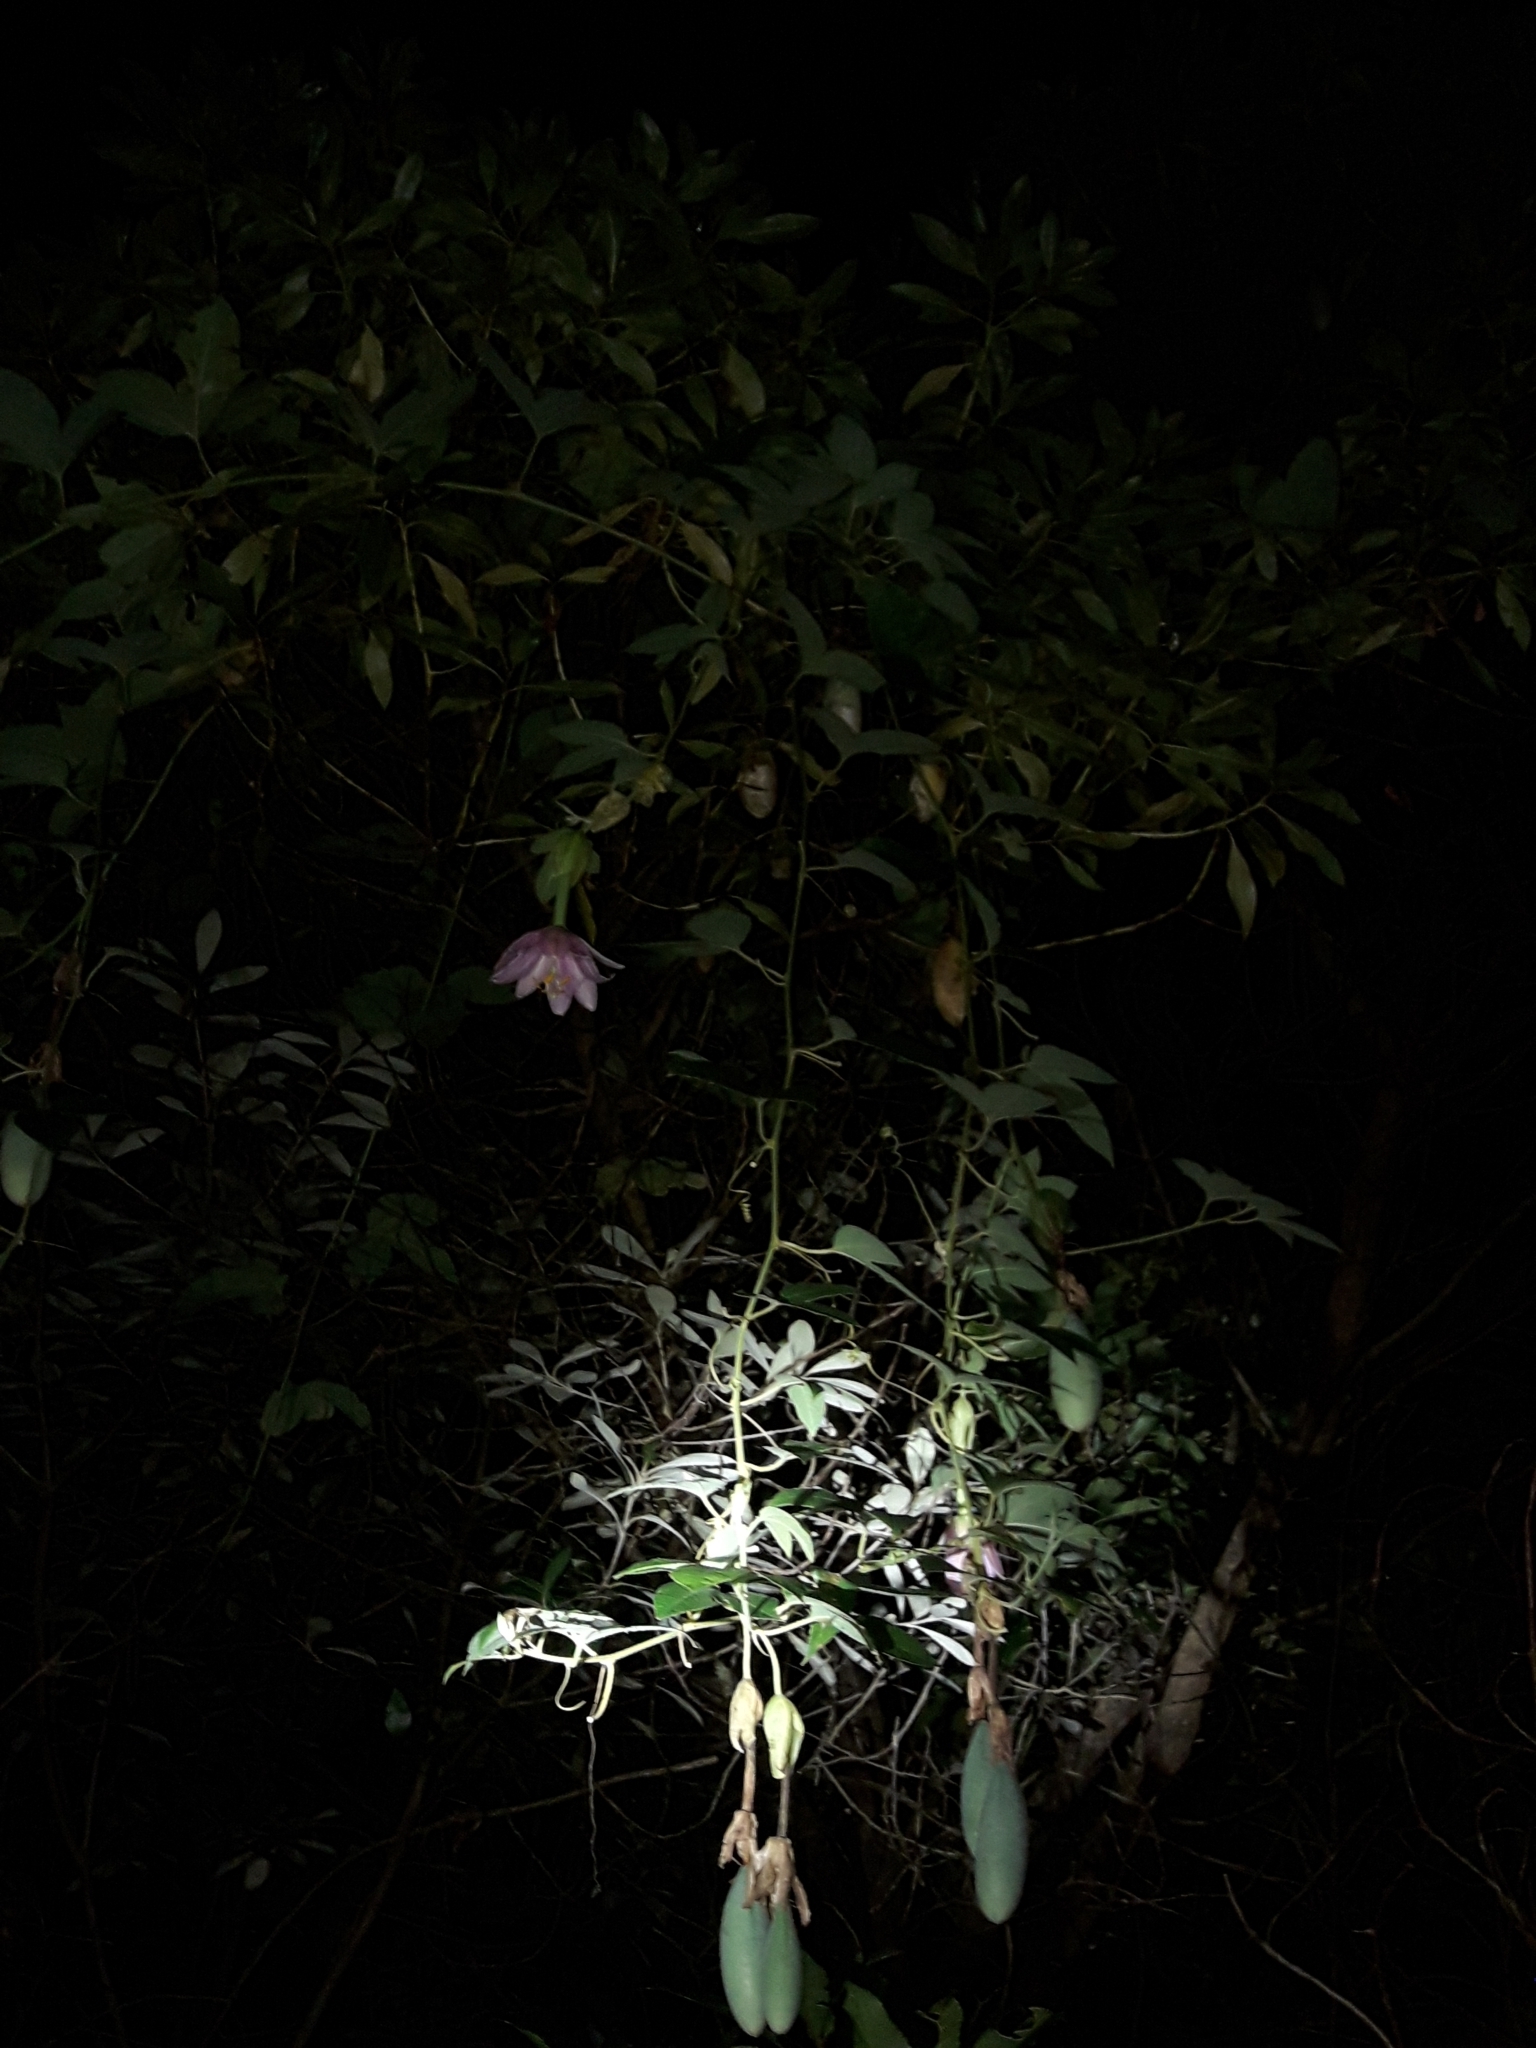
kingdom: Plantae
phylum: Tracheophyta
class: Magnoliopsida
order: Malpighiales
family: Passifloraceae
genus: Passiflora
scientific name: Passiflora tarminiana
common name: Banana poka
